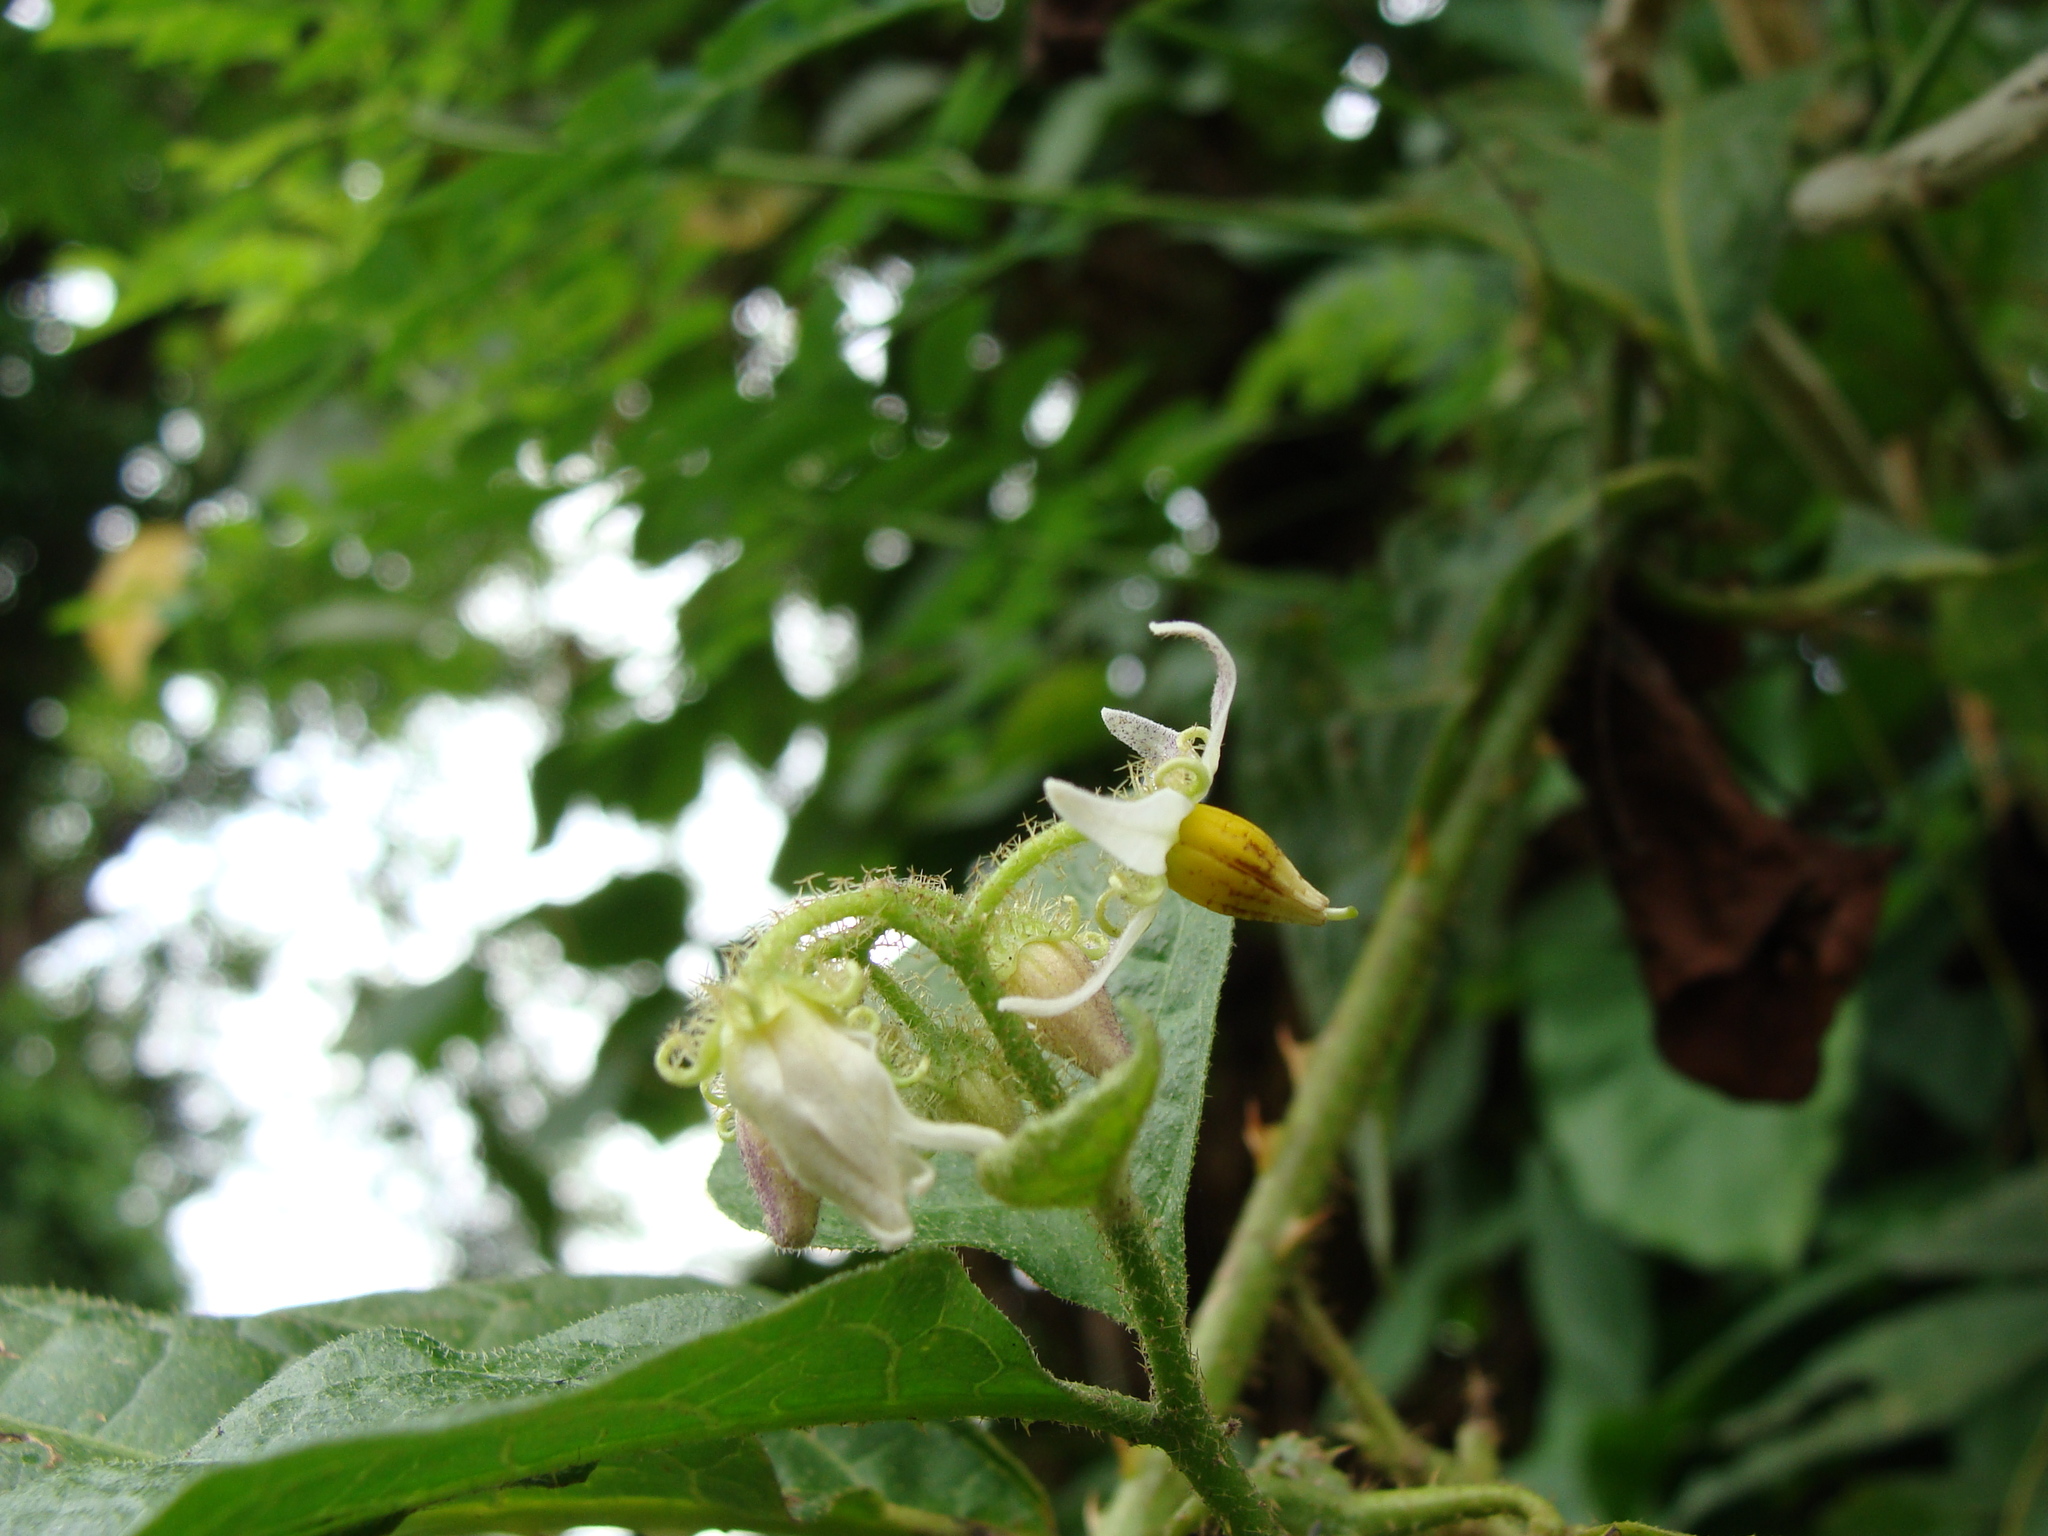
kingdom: Plantae
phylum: Tracheophyta
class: Magnoliopsida
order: Solanales
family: Solanaceae
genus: Solanum
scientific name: Solanum jamaicense
